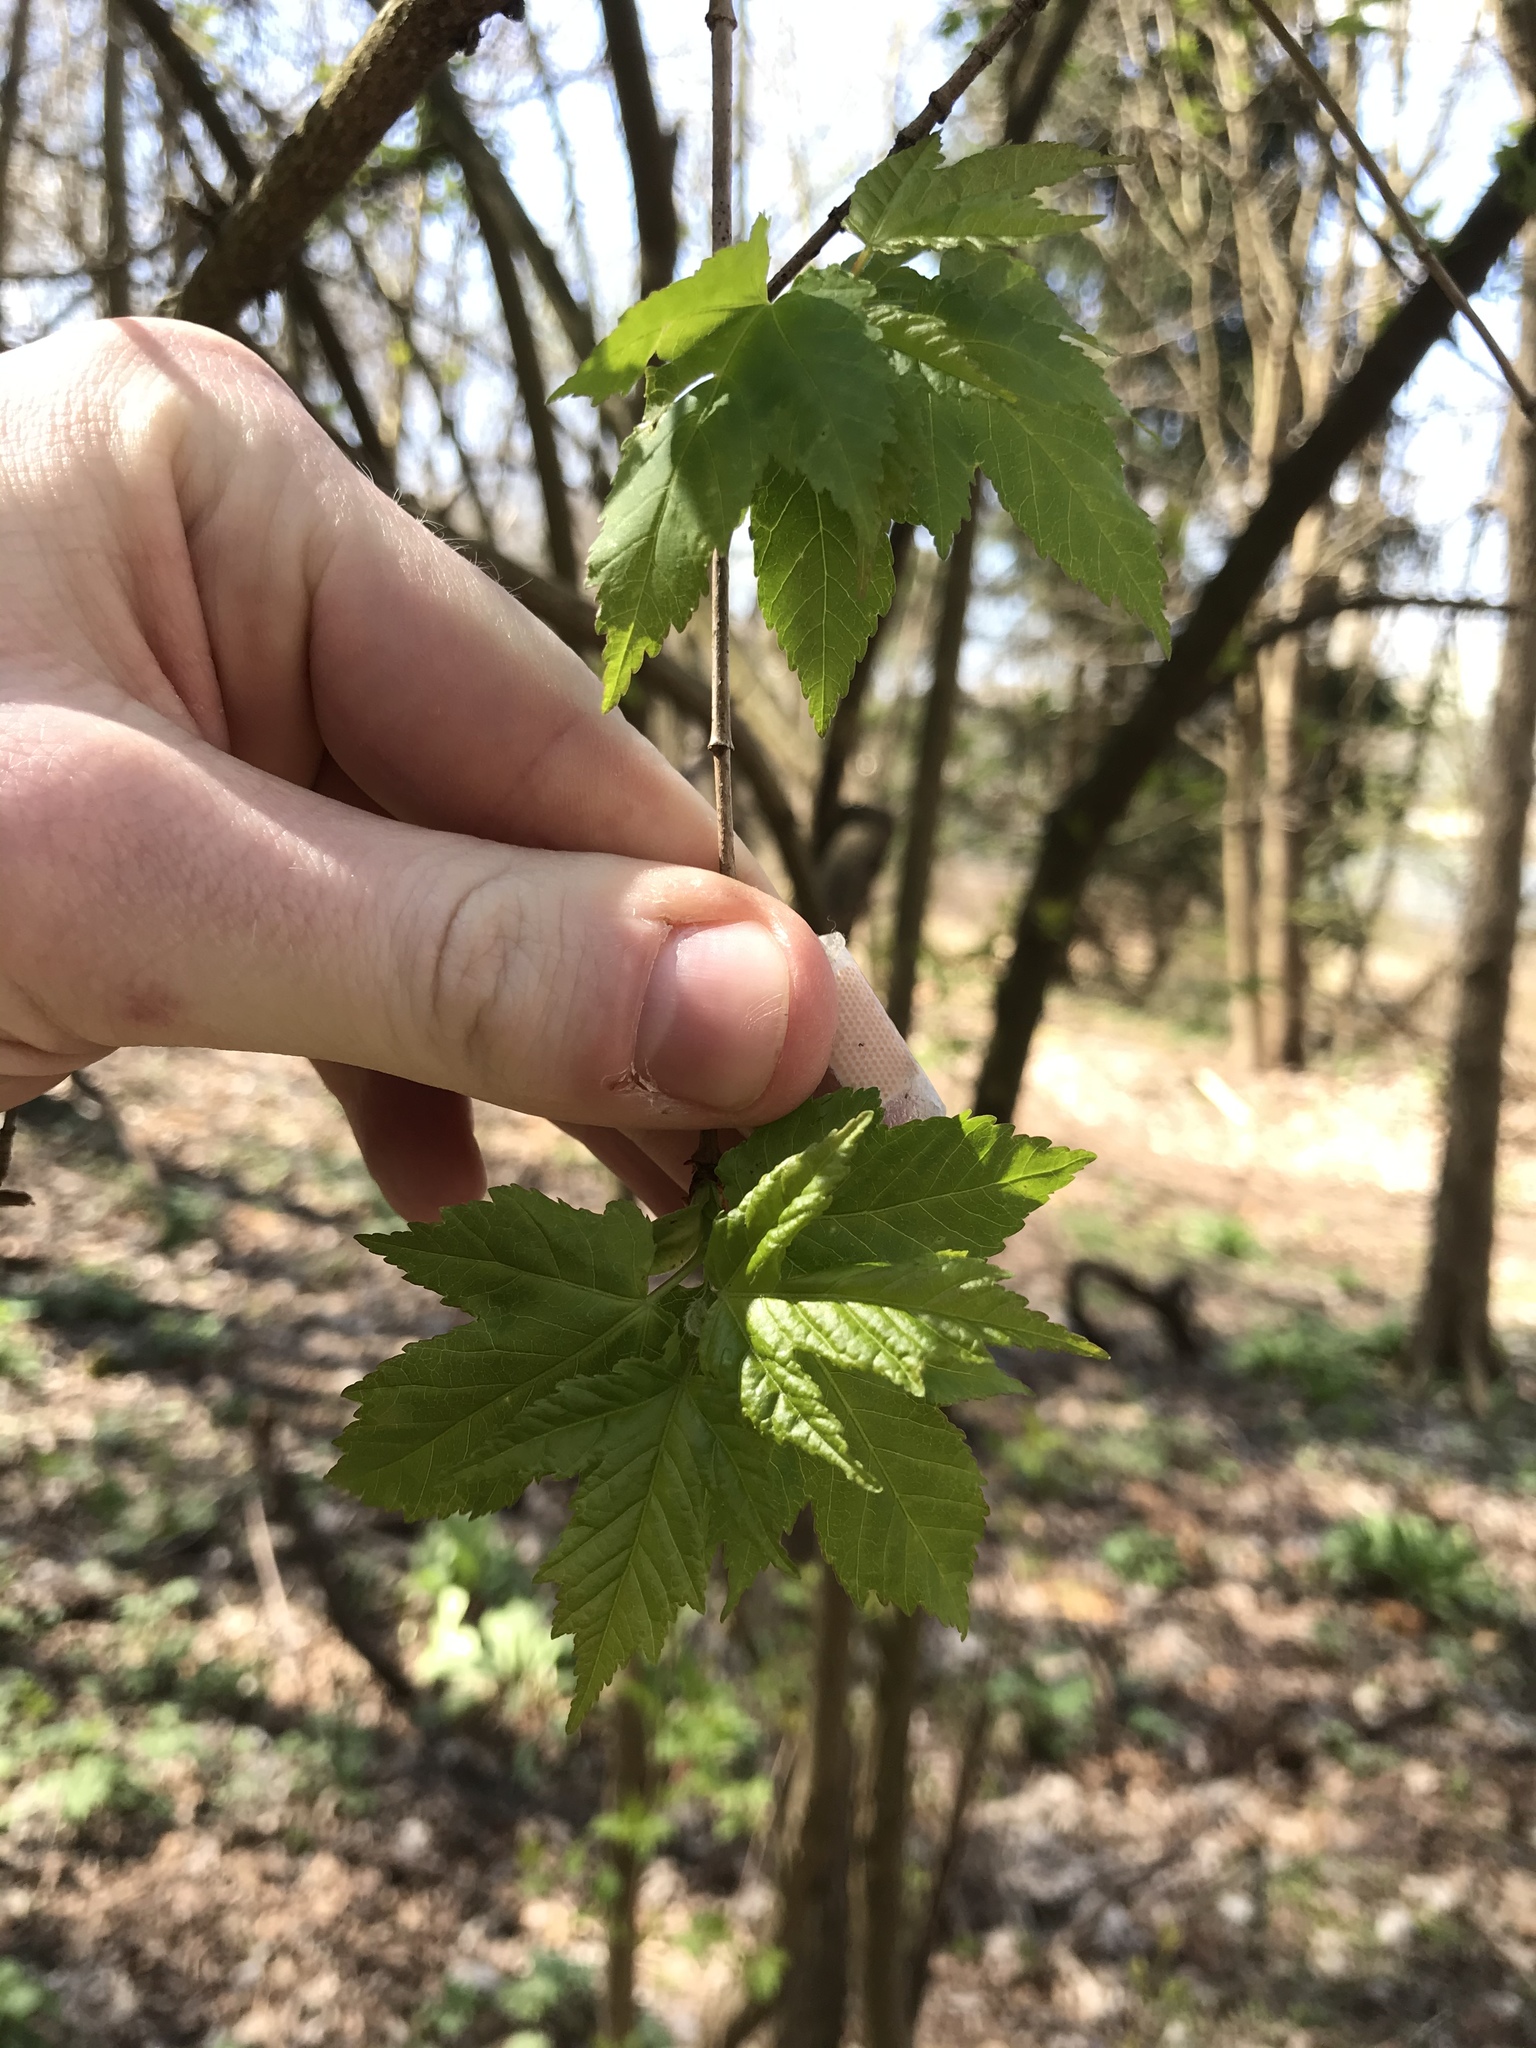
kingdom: Plantae
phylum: Tracheophyta
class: Magnoliopsida
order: Sapindales
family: Sapindaceae
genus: Acer
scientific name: Acer rubrum
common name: Red maple
